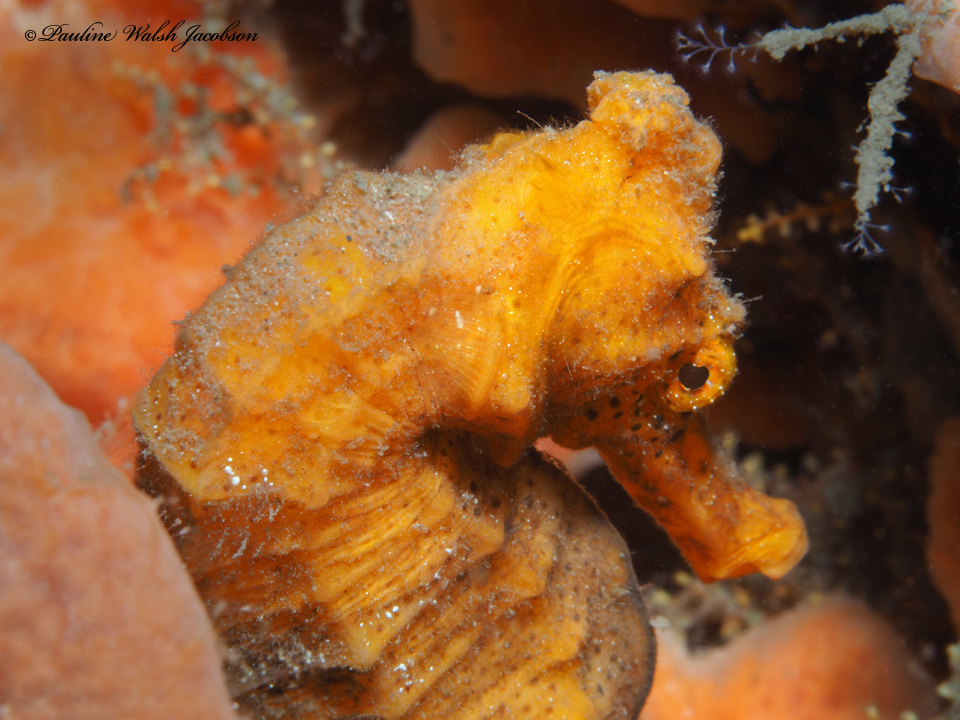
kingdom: Animalia
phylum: Chordata
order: Syngnathiformes
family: Syngnathidae
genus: Hippocampus
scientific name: Hippocampus reidi
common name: Slender seahorse
